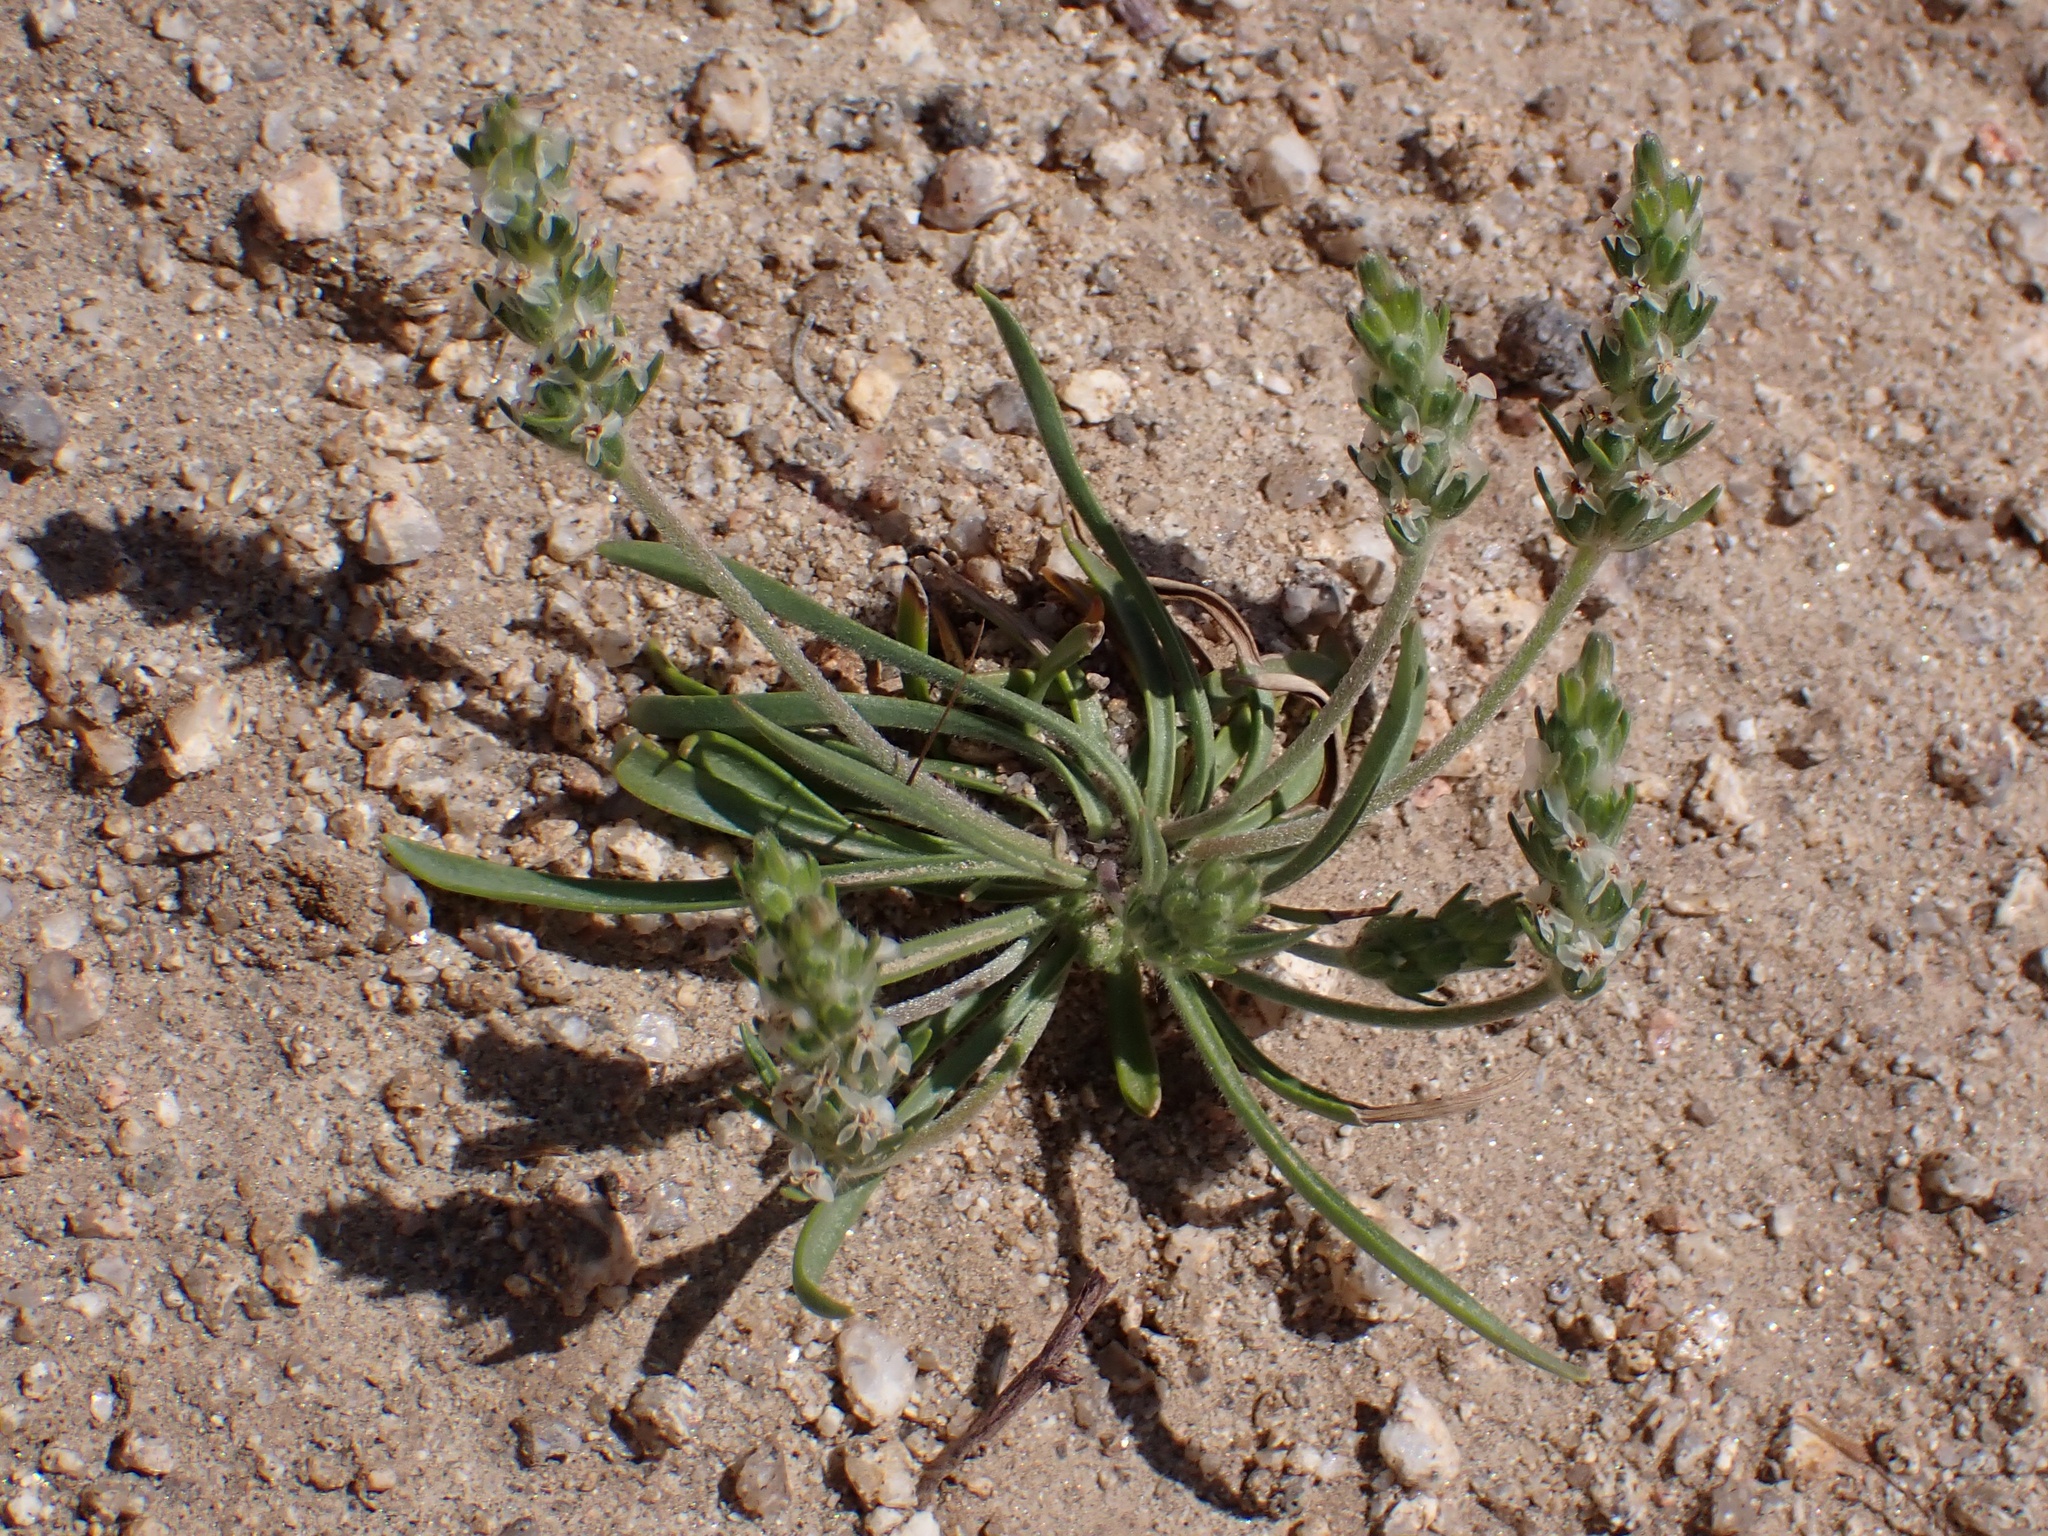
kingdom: Plantae
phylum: Tracheophyta
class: Magnoliopsida
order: Lamiales
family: Plantaginaceae
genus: Plantago
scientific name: Plantago patagonica
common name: Patagonia indian-wheat
